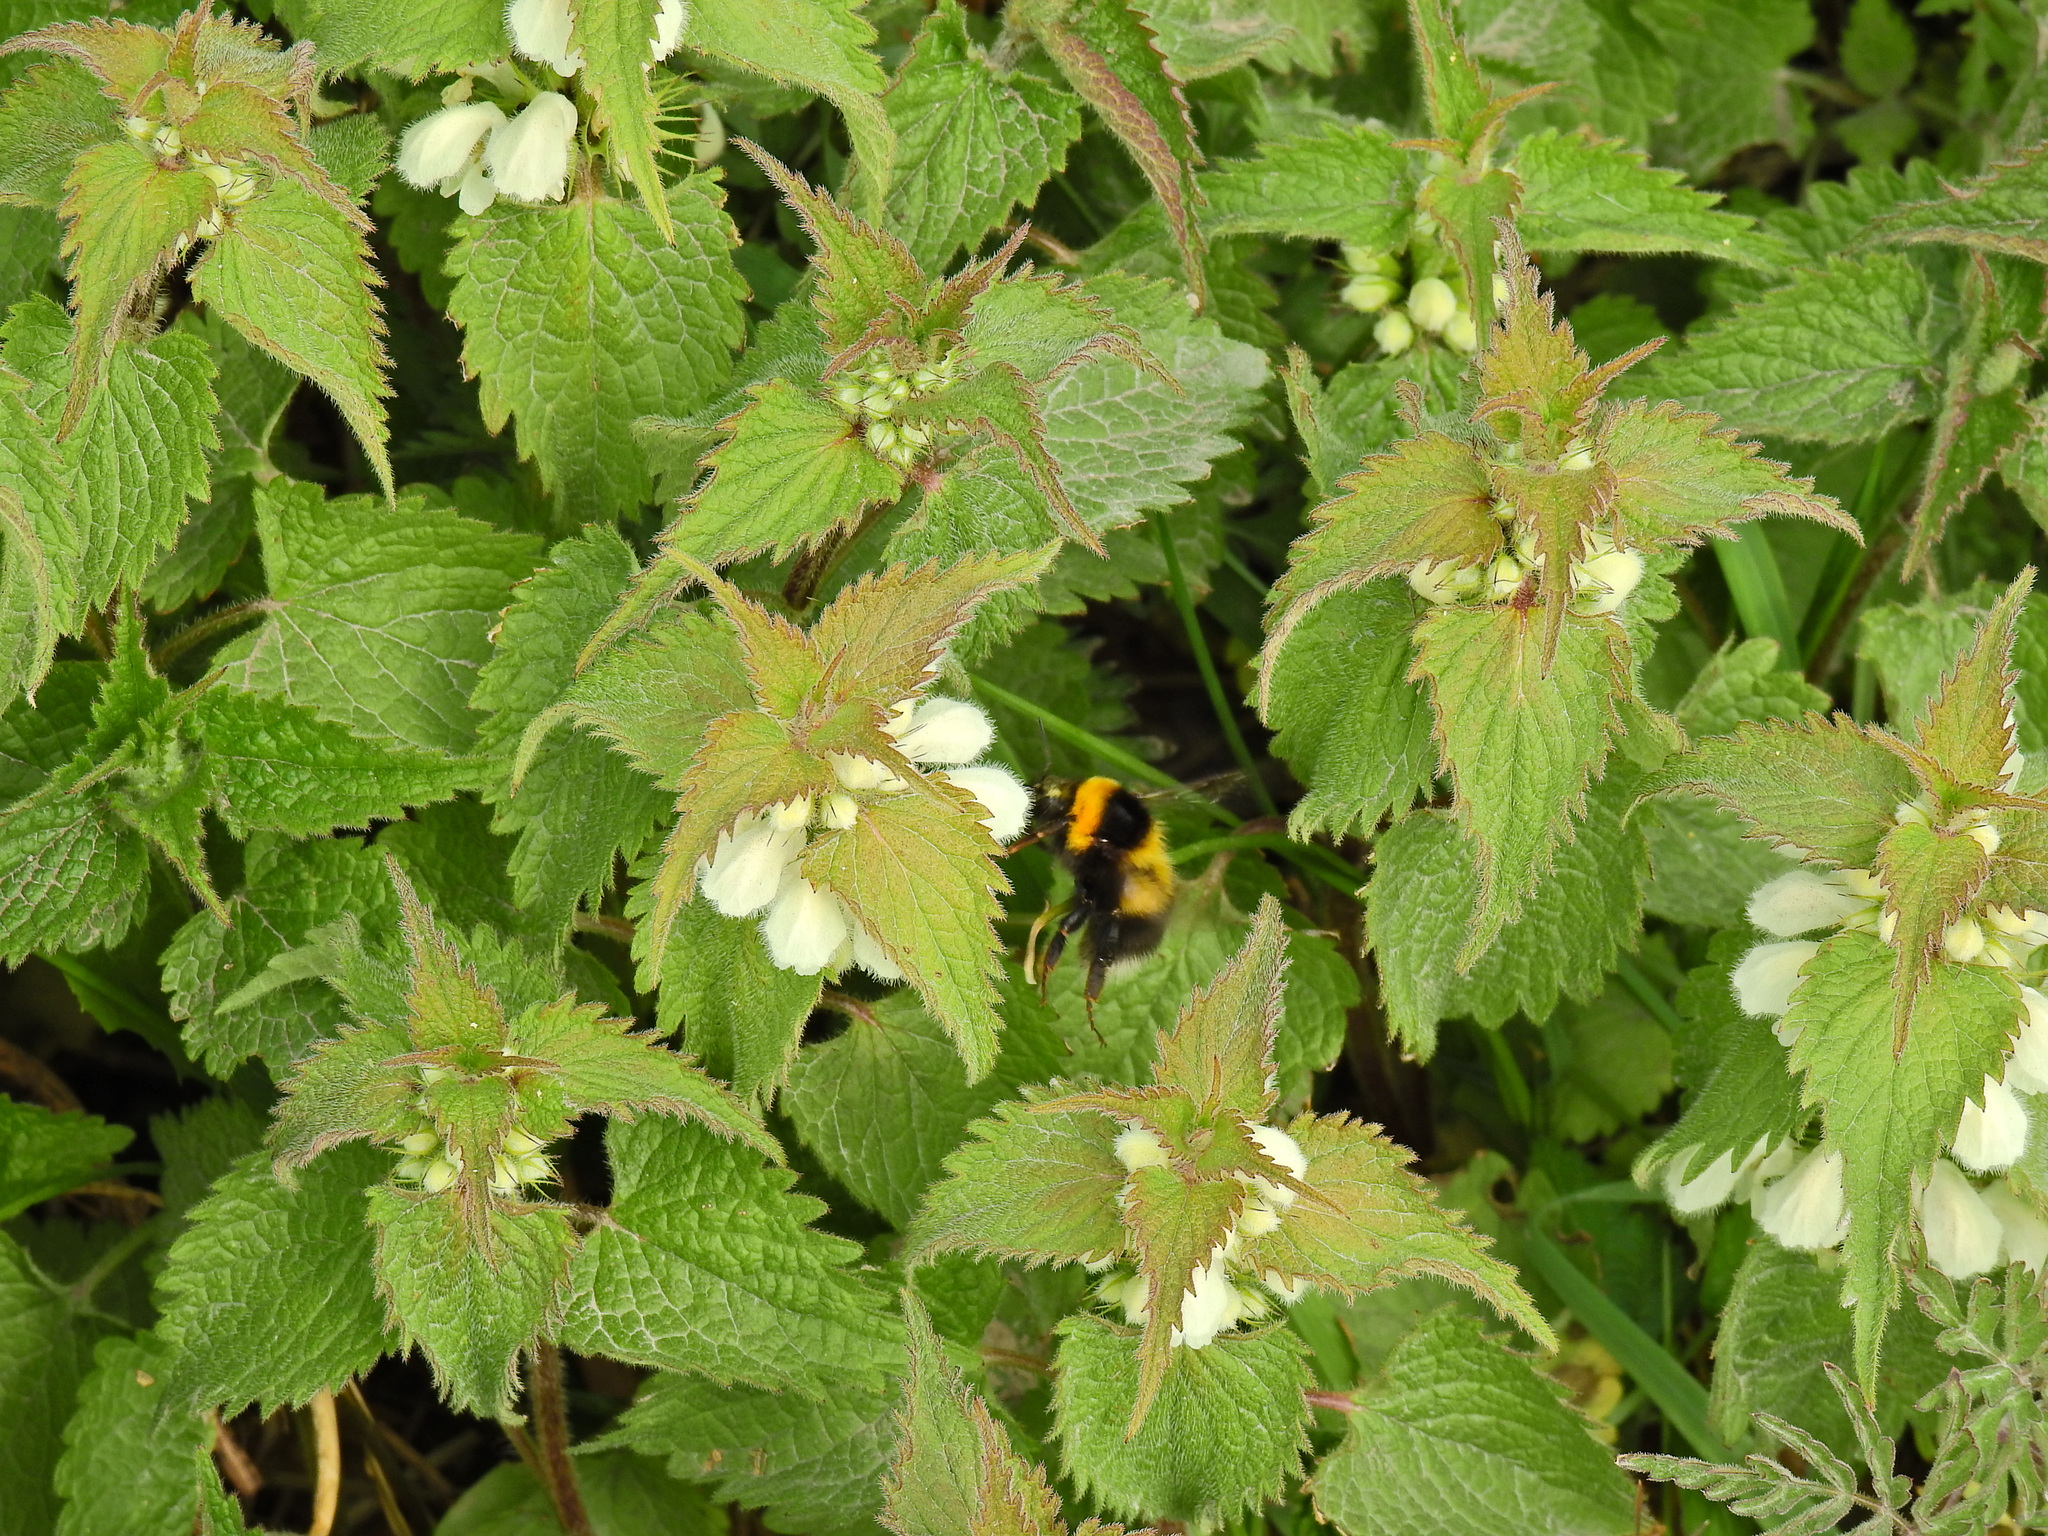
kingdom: Animalia
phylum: Arthropoda
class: Insecta
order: Hymenoptera
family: Apidae
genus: Bombus
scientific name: Bombus hortorum
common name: Garden bumblebee
